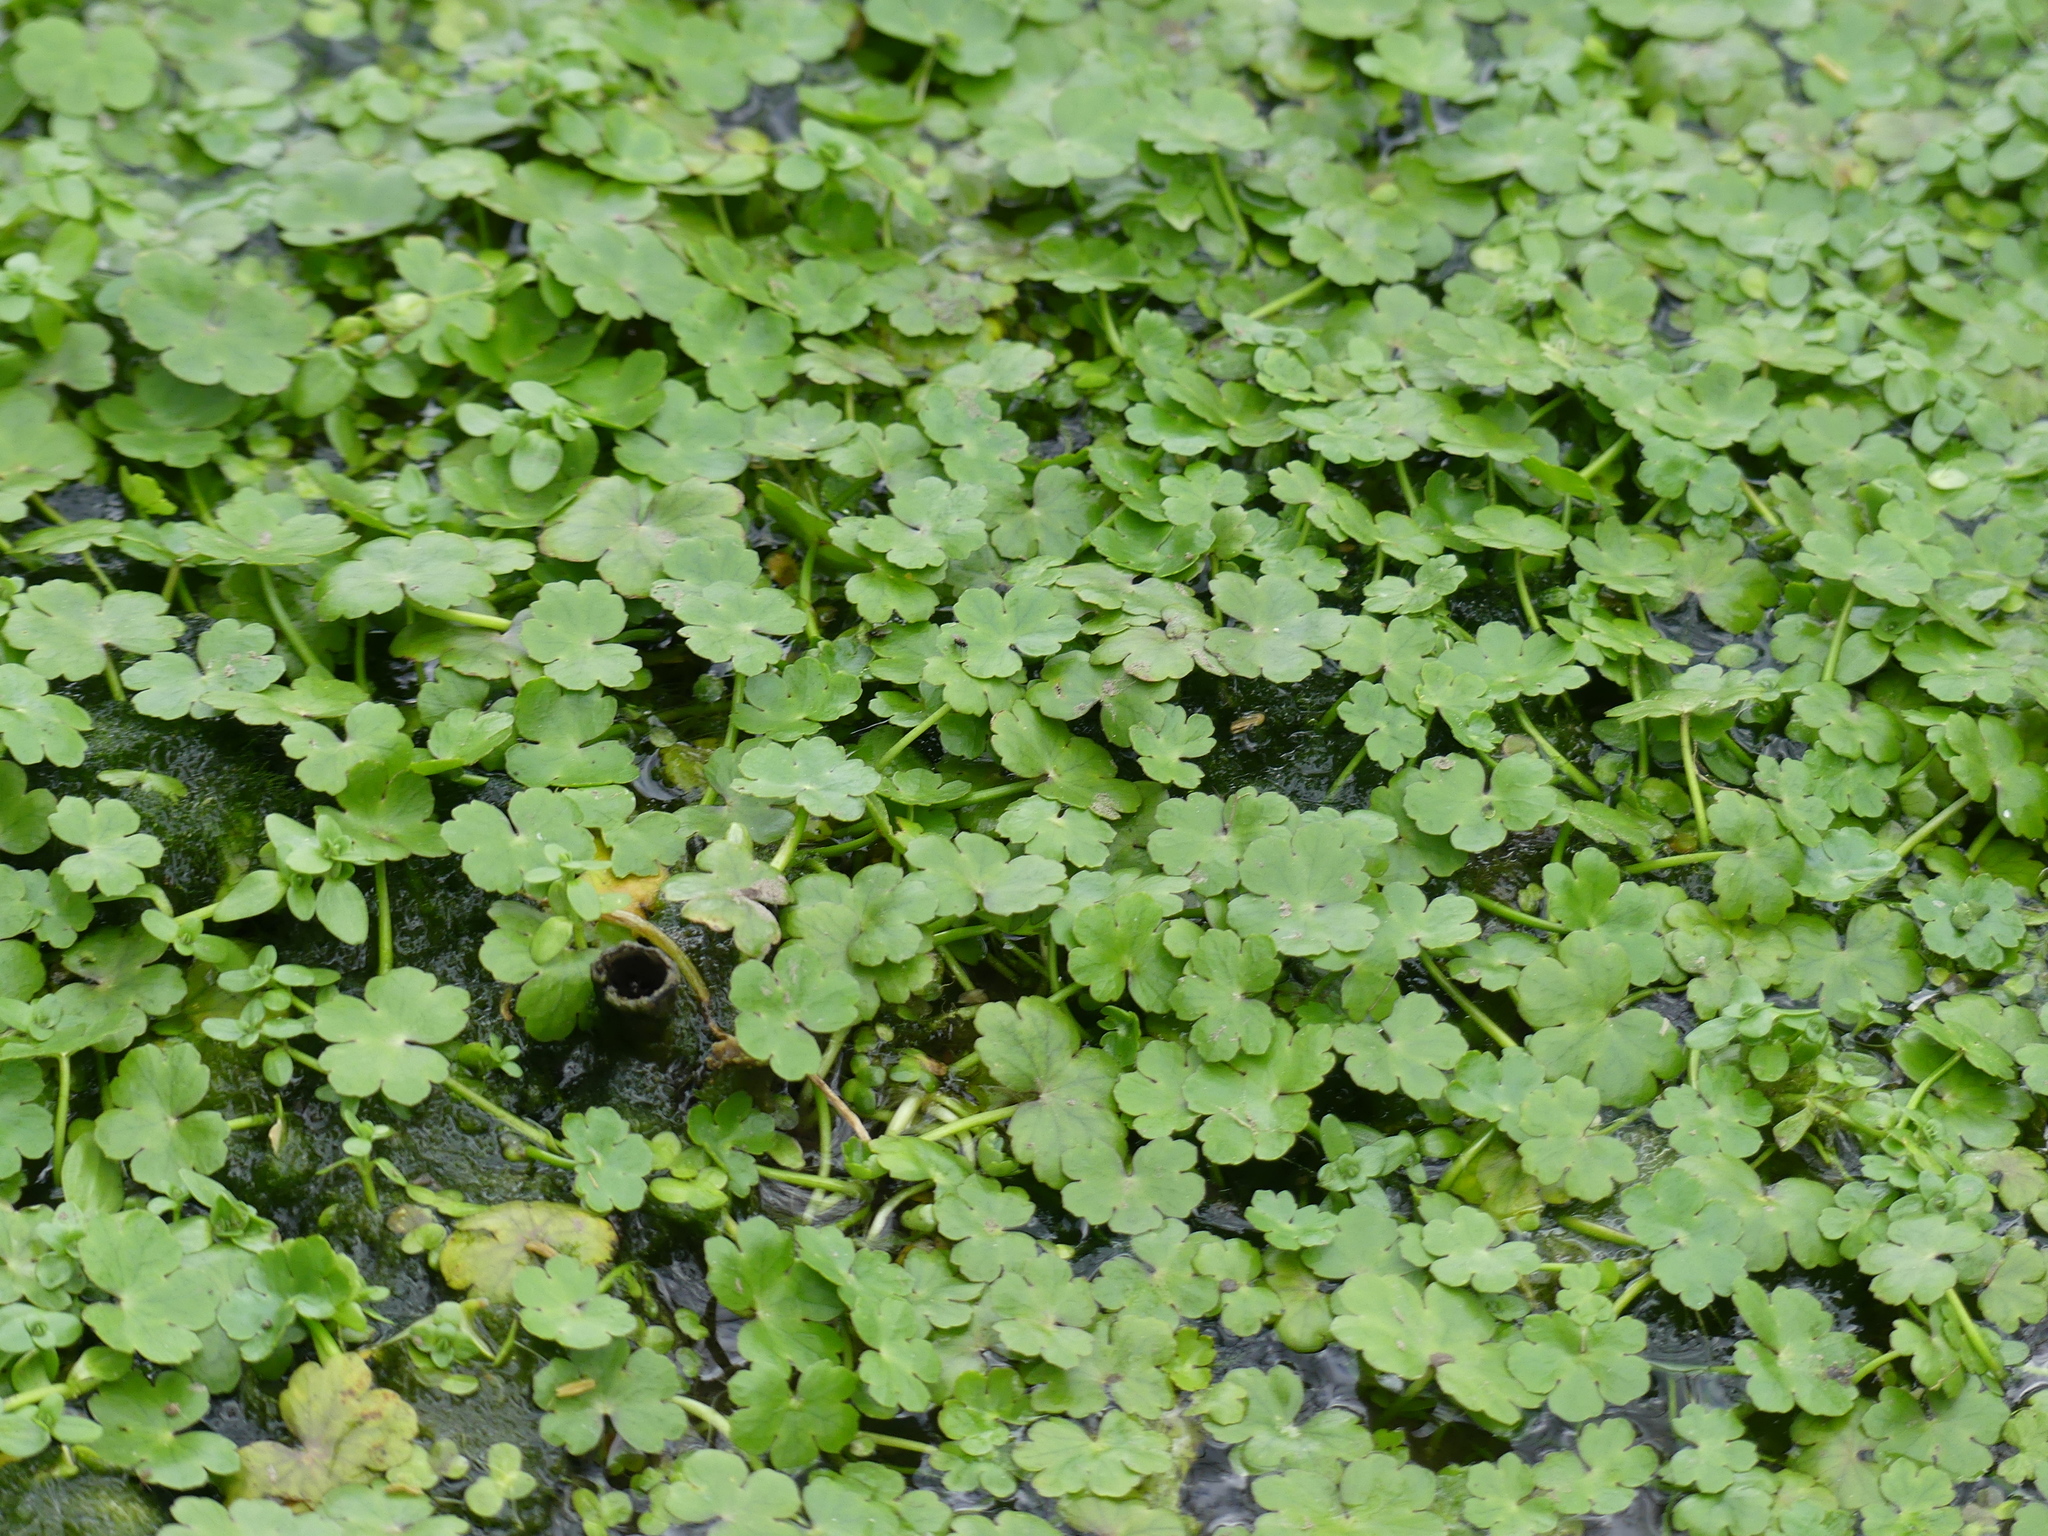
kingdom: Plantae
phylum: Tracheophyta
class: Magnoliopsida
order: Apiales
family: Araliaceae
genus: Hydrocotyle
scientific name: Hydrocotyle ranunculoides
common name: Floating pennywort
